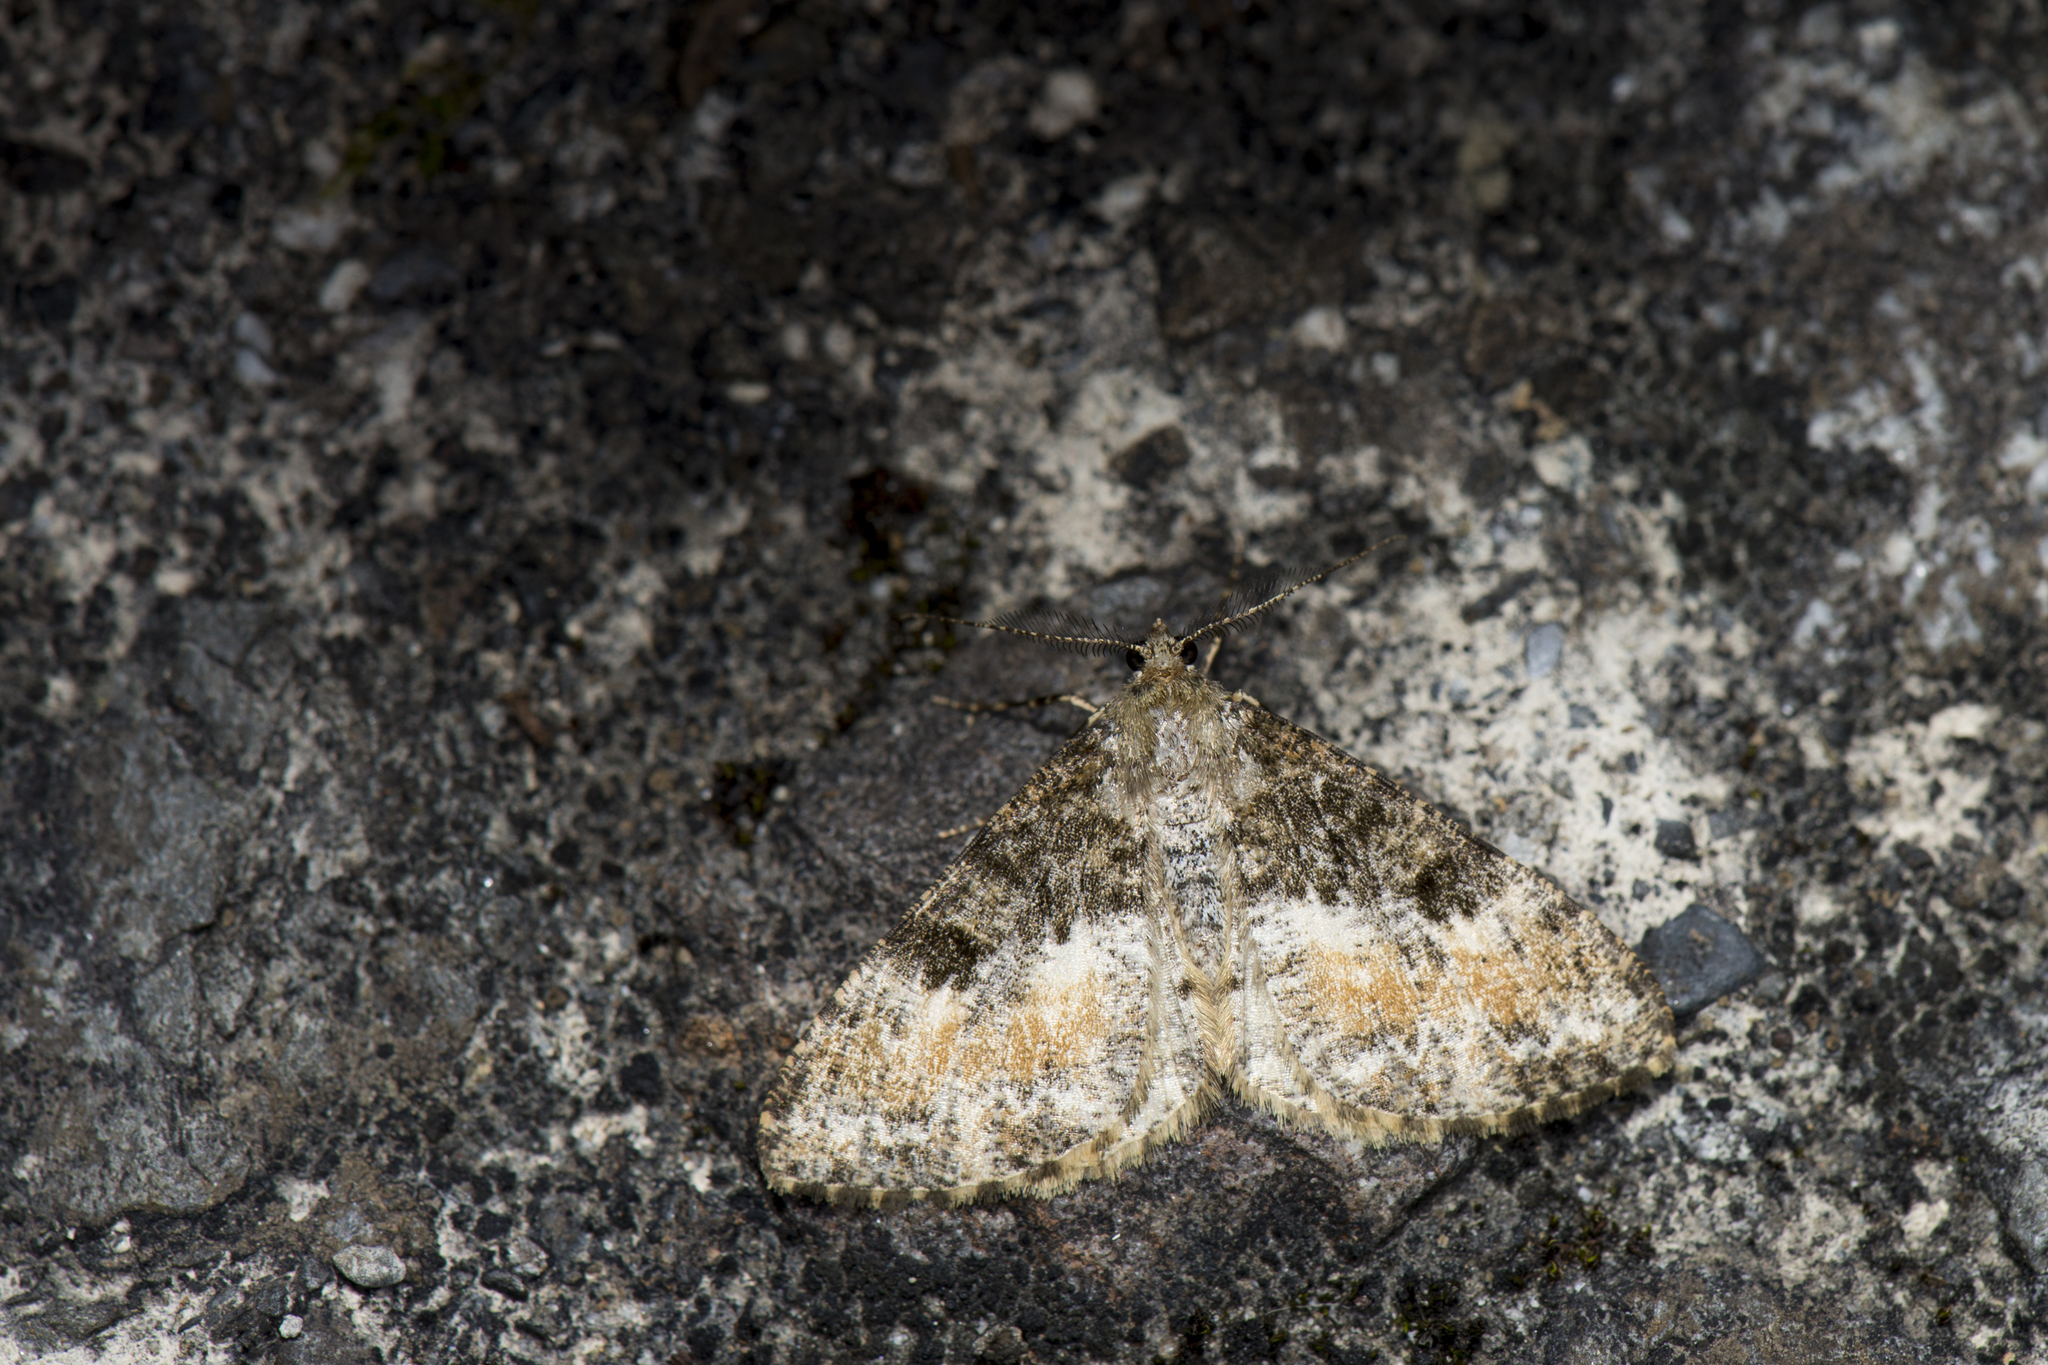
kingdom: Animalia
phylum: Arthropoda
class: Insecta
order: Lepidoptera
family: Geometridae
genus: Alcis
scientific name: Alcis scortea
